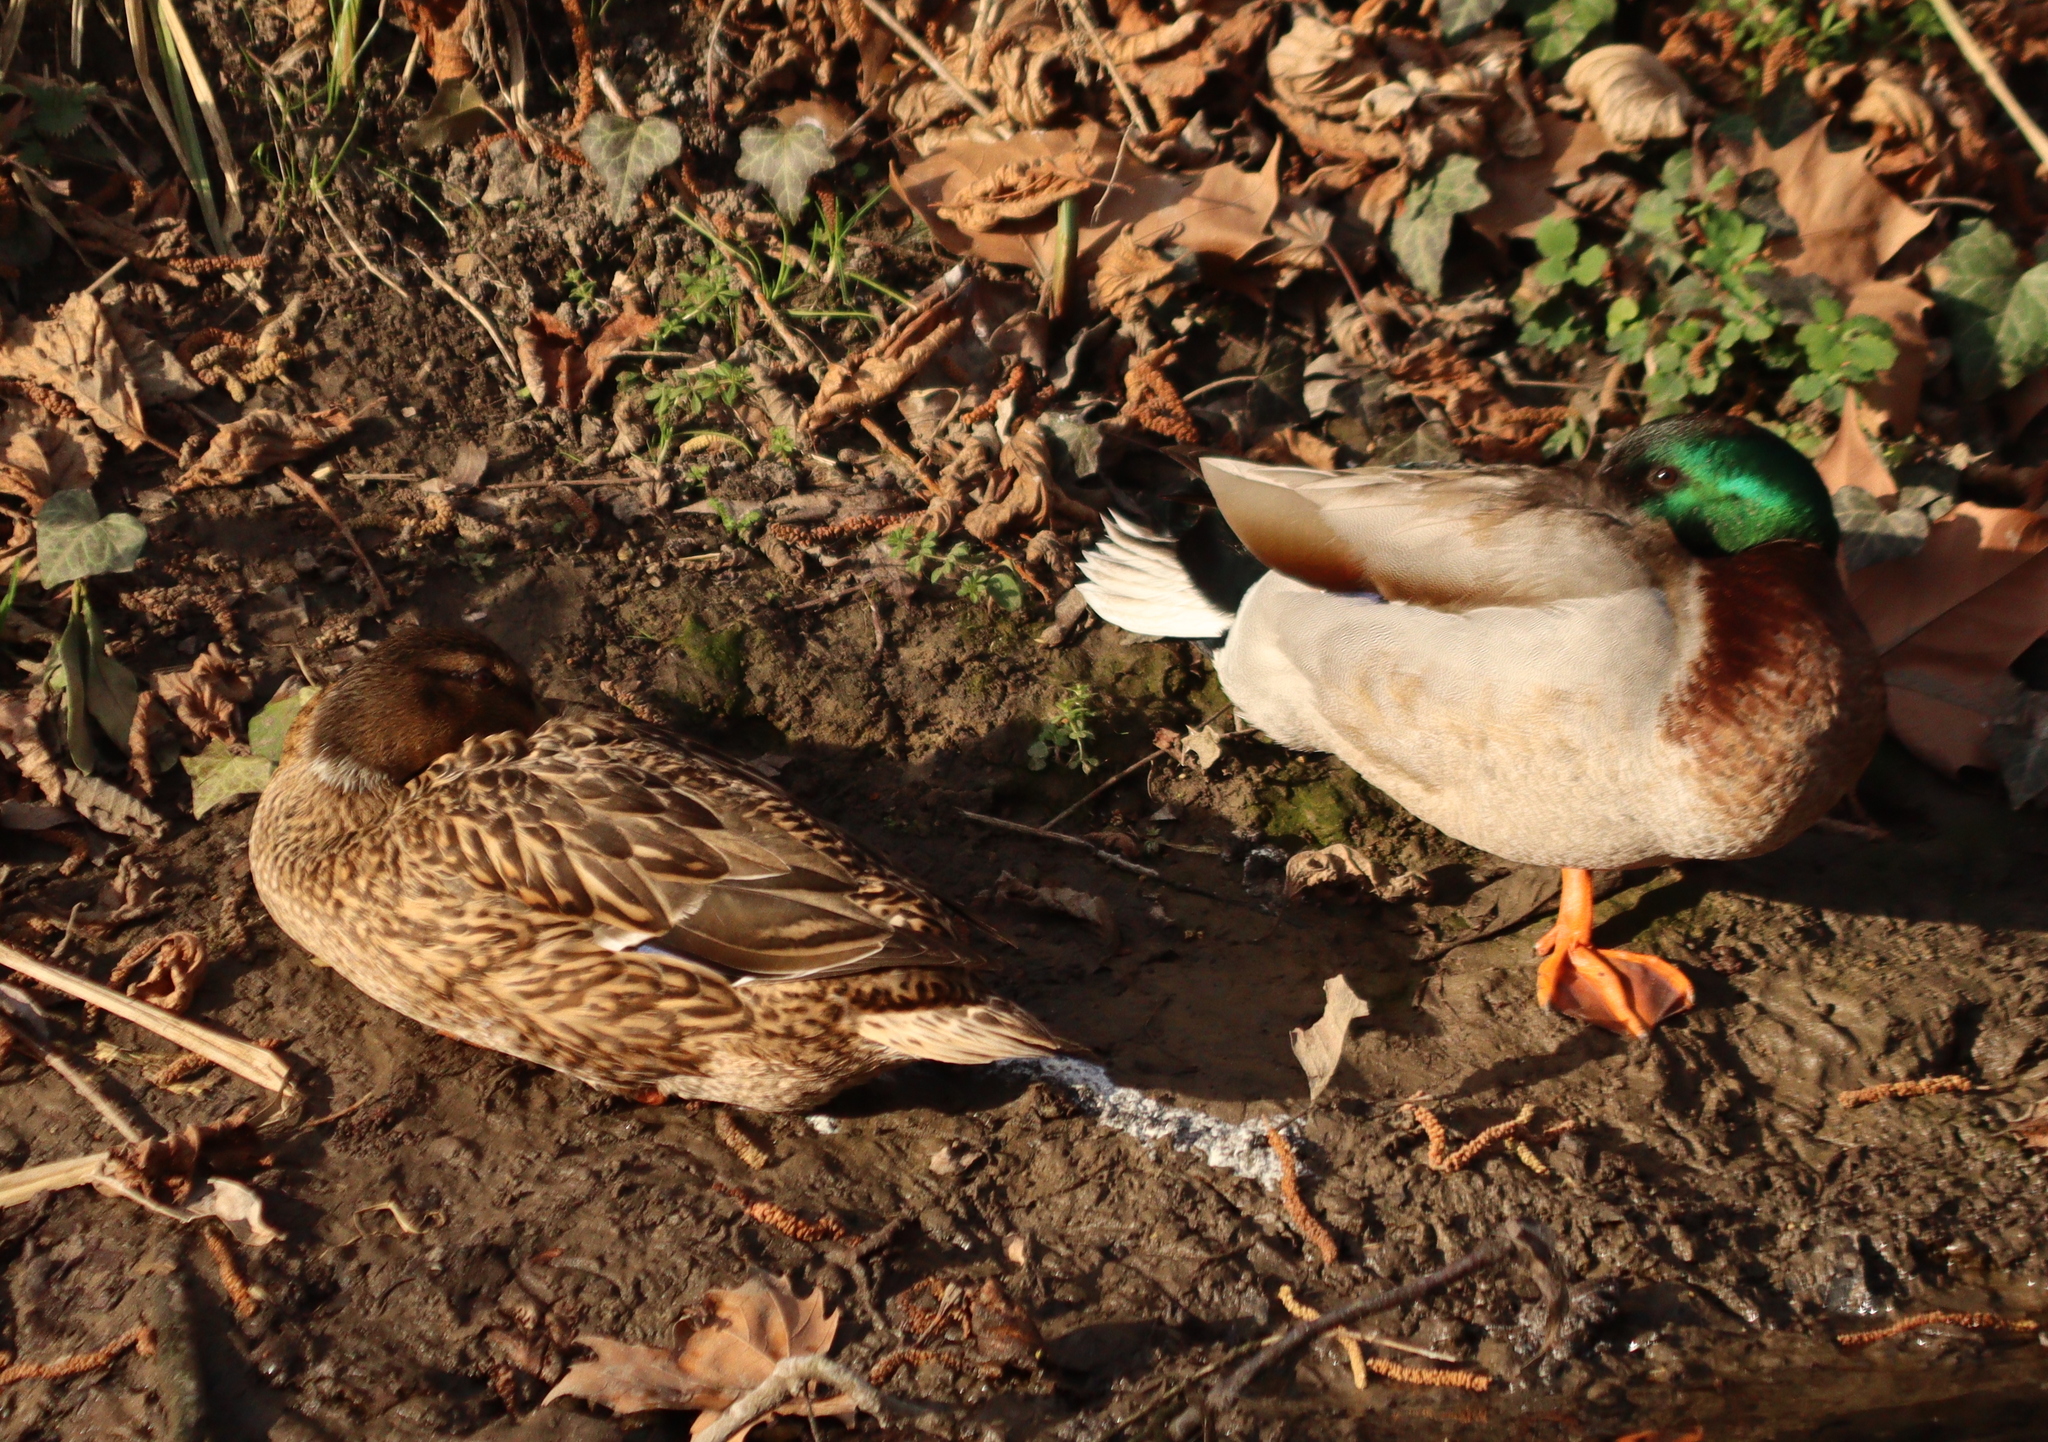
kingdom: Animalia
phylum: Chordata
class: Aves
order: Anseriformes
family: Anatidae
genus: Anas
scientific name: Anas platyrhynchos
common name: Mallard
